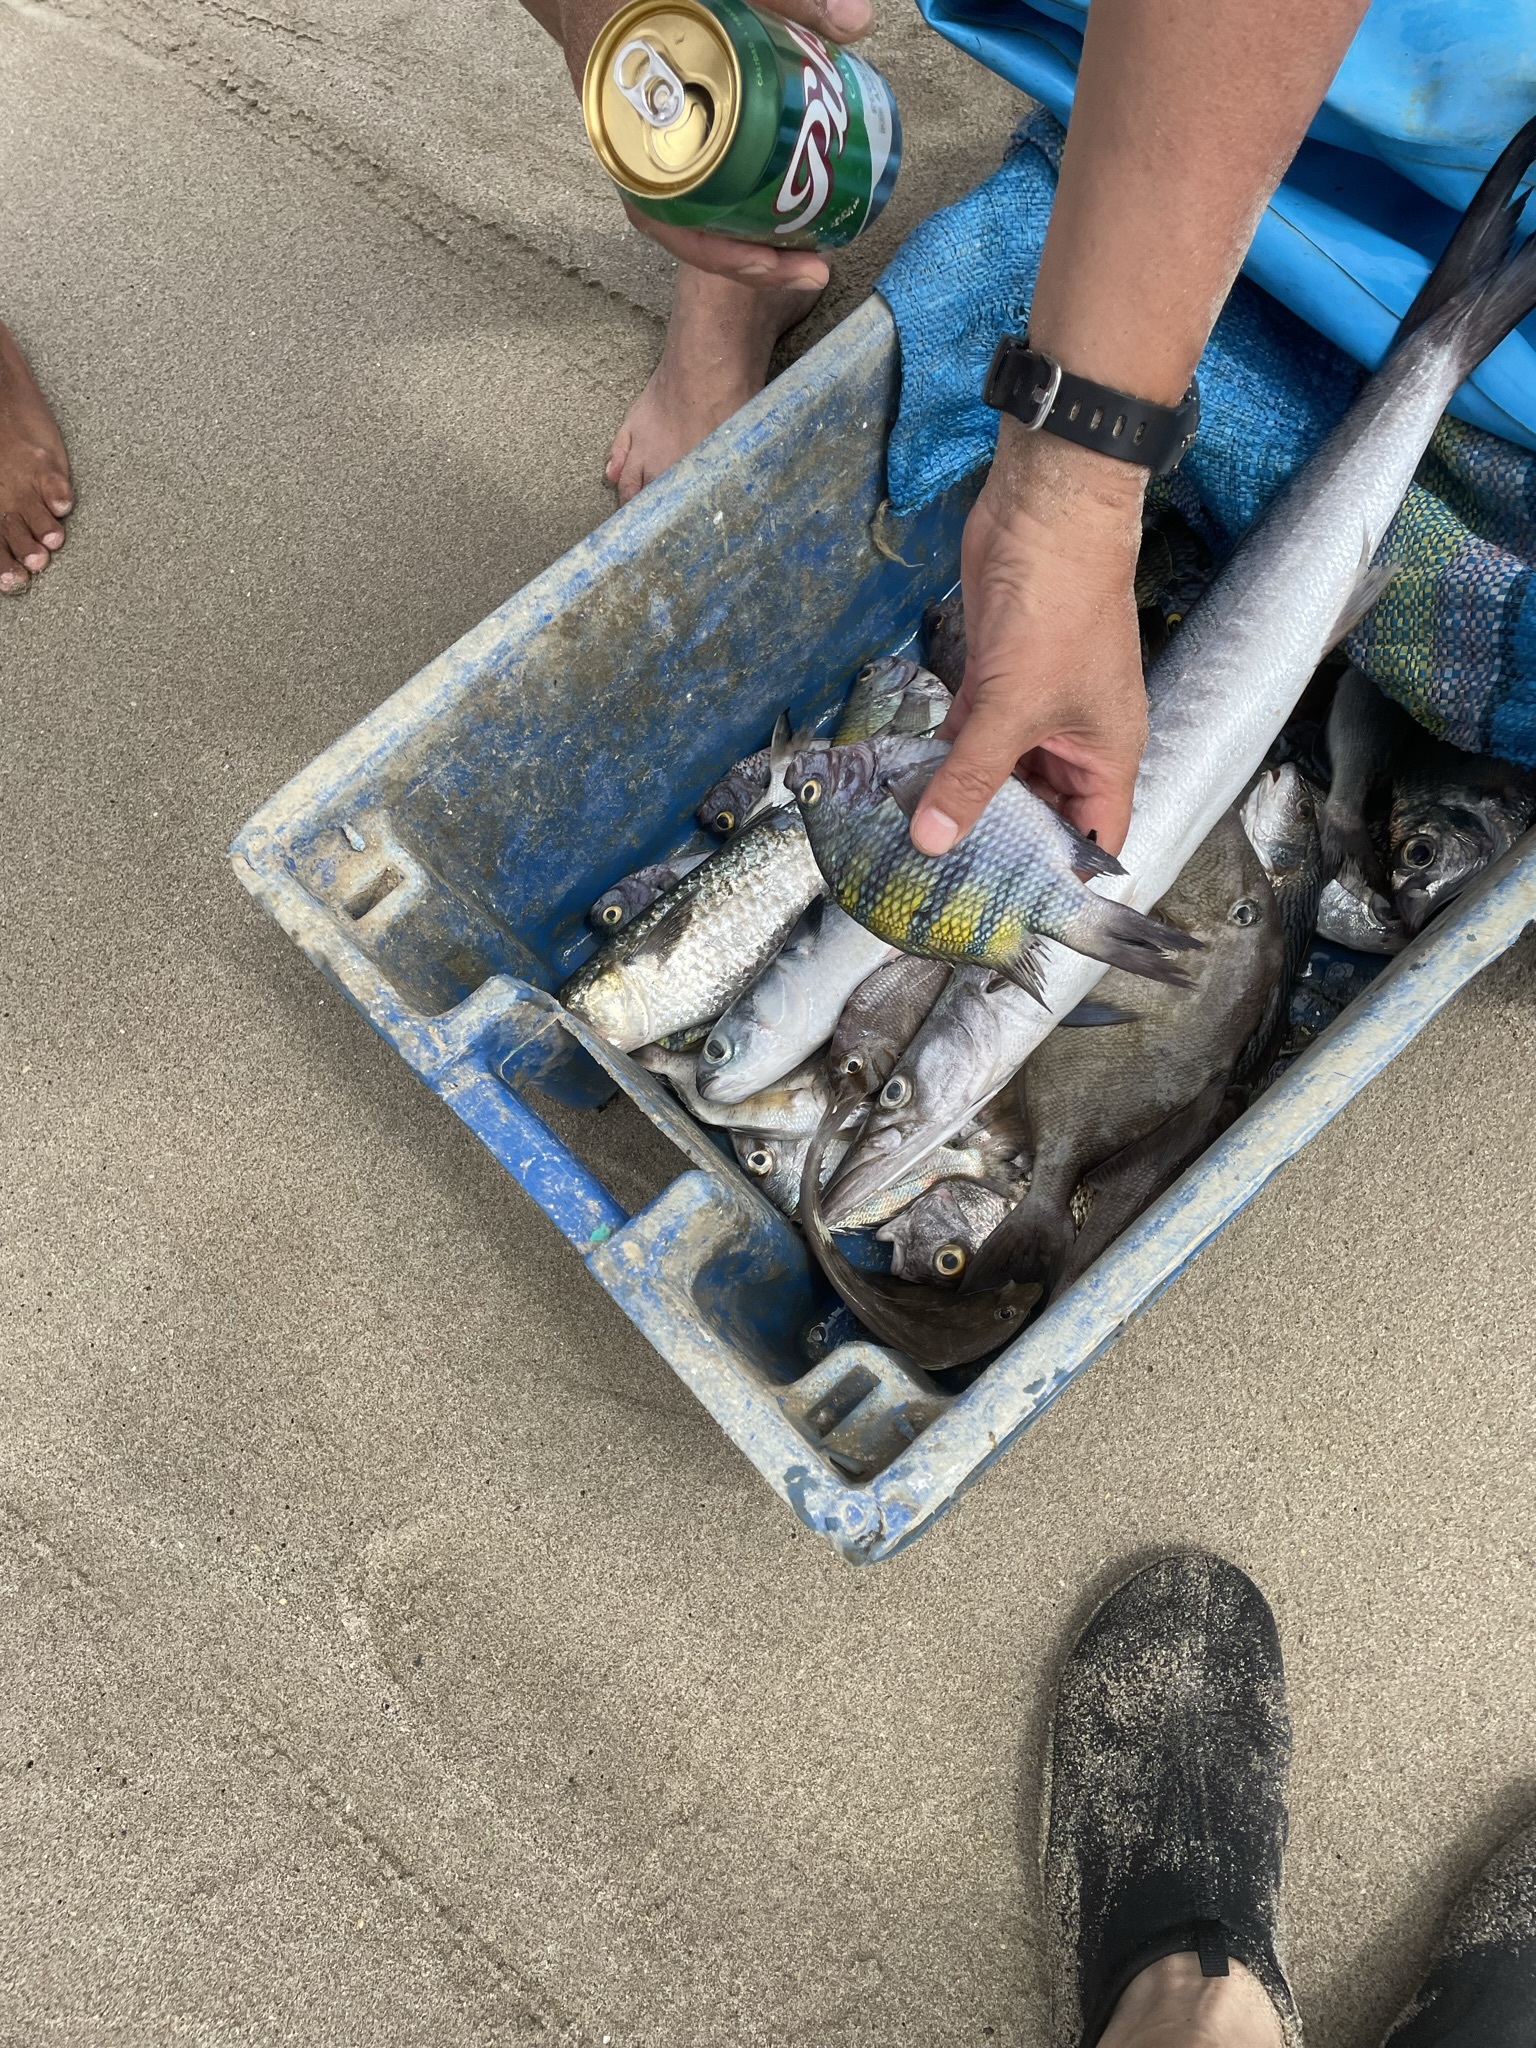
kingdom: Animalia
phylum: Chordata
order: Perciformes
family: Pomacentridae
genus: Abudefduf
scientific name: Abudefduf troschelii
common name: Panamic sergeant major
